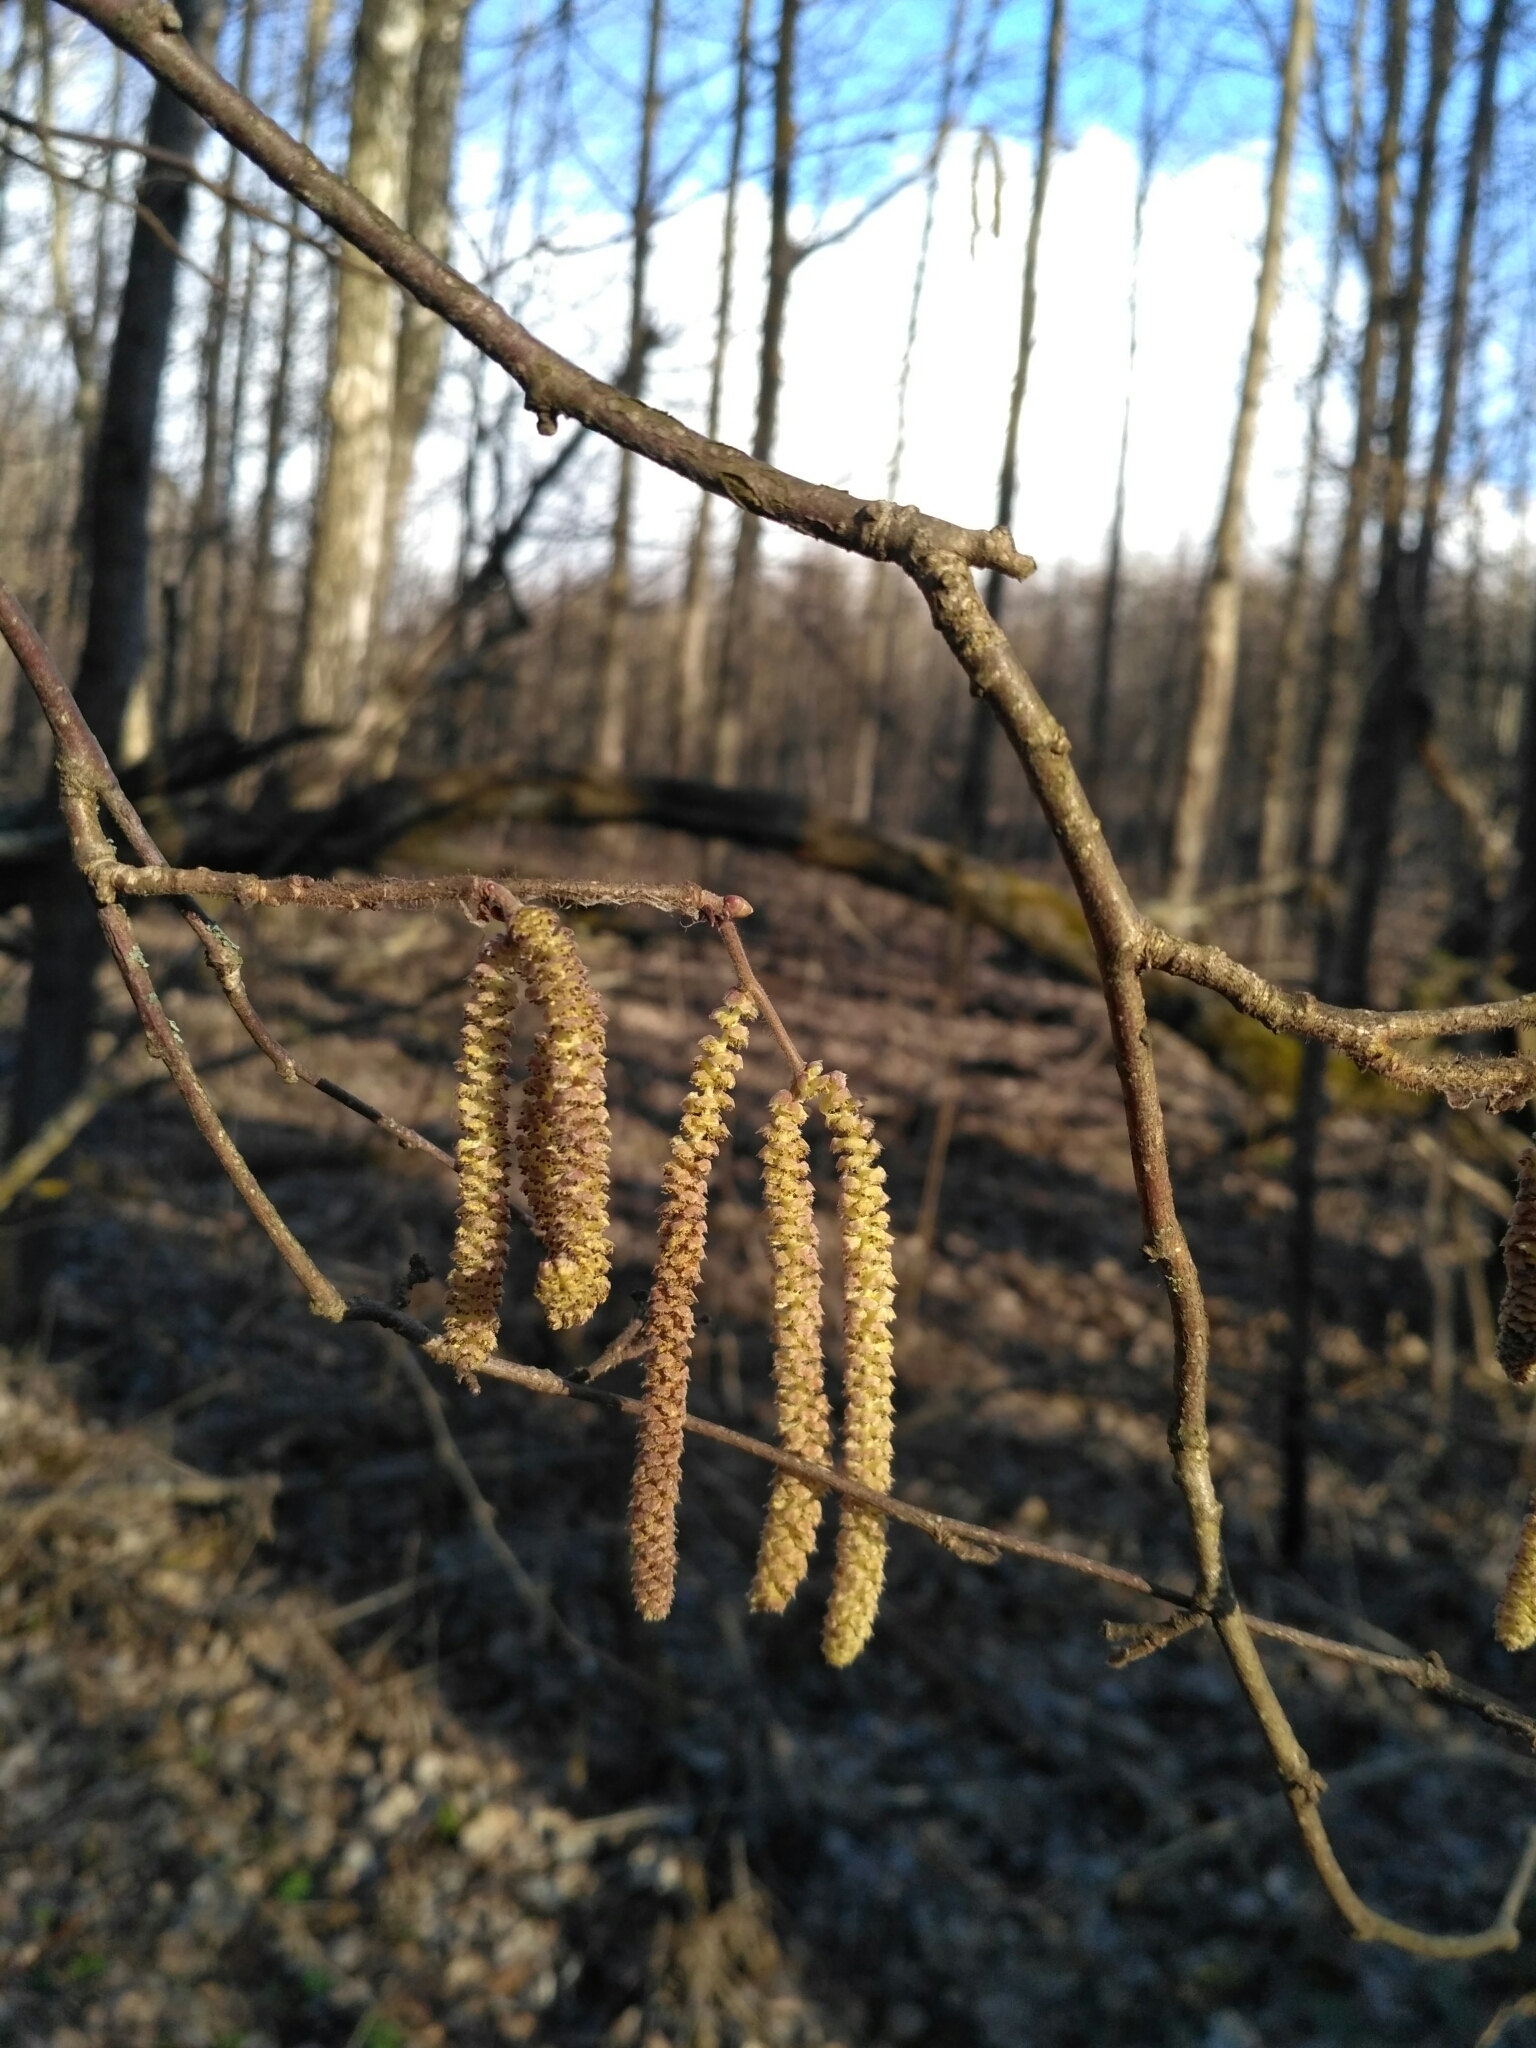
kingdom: Plantae
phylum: Tracheophyta
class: Magnoliopsida
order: Fagales
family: Betulaceae
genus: Corylus
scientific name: Corylus avellana
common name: European hazel
